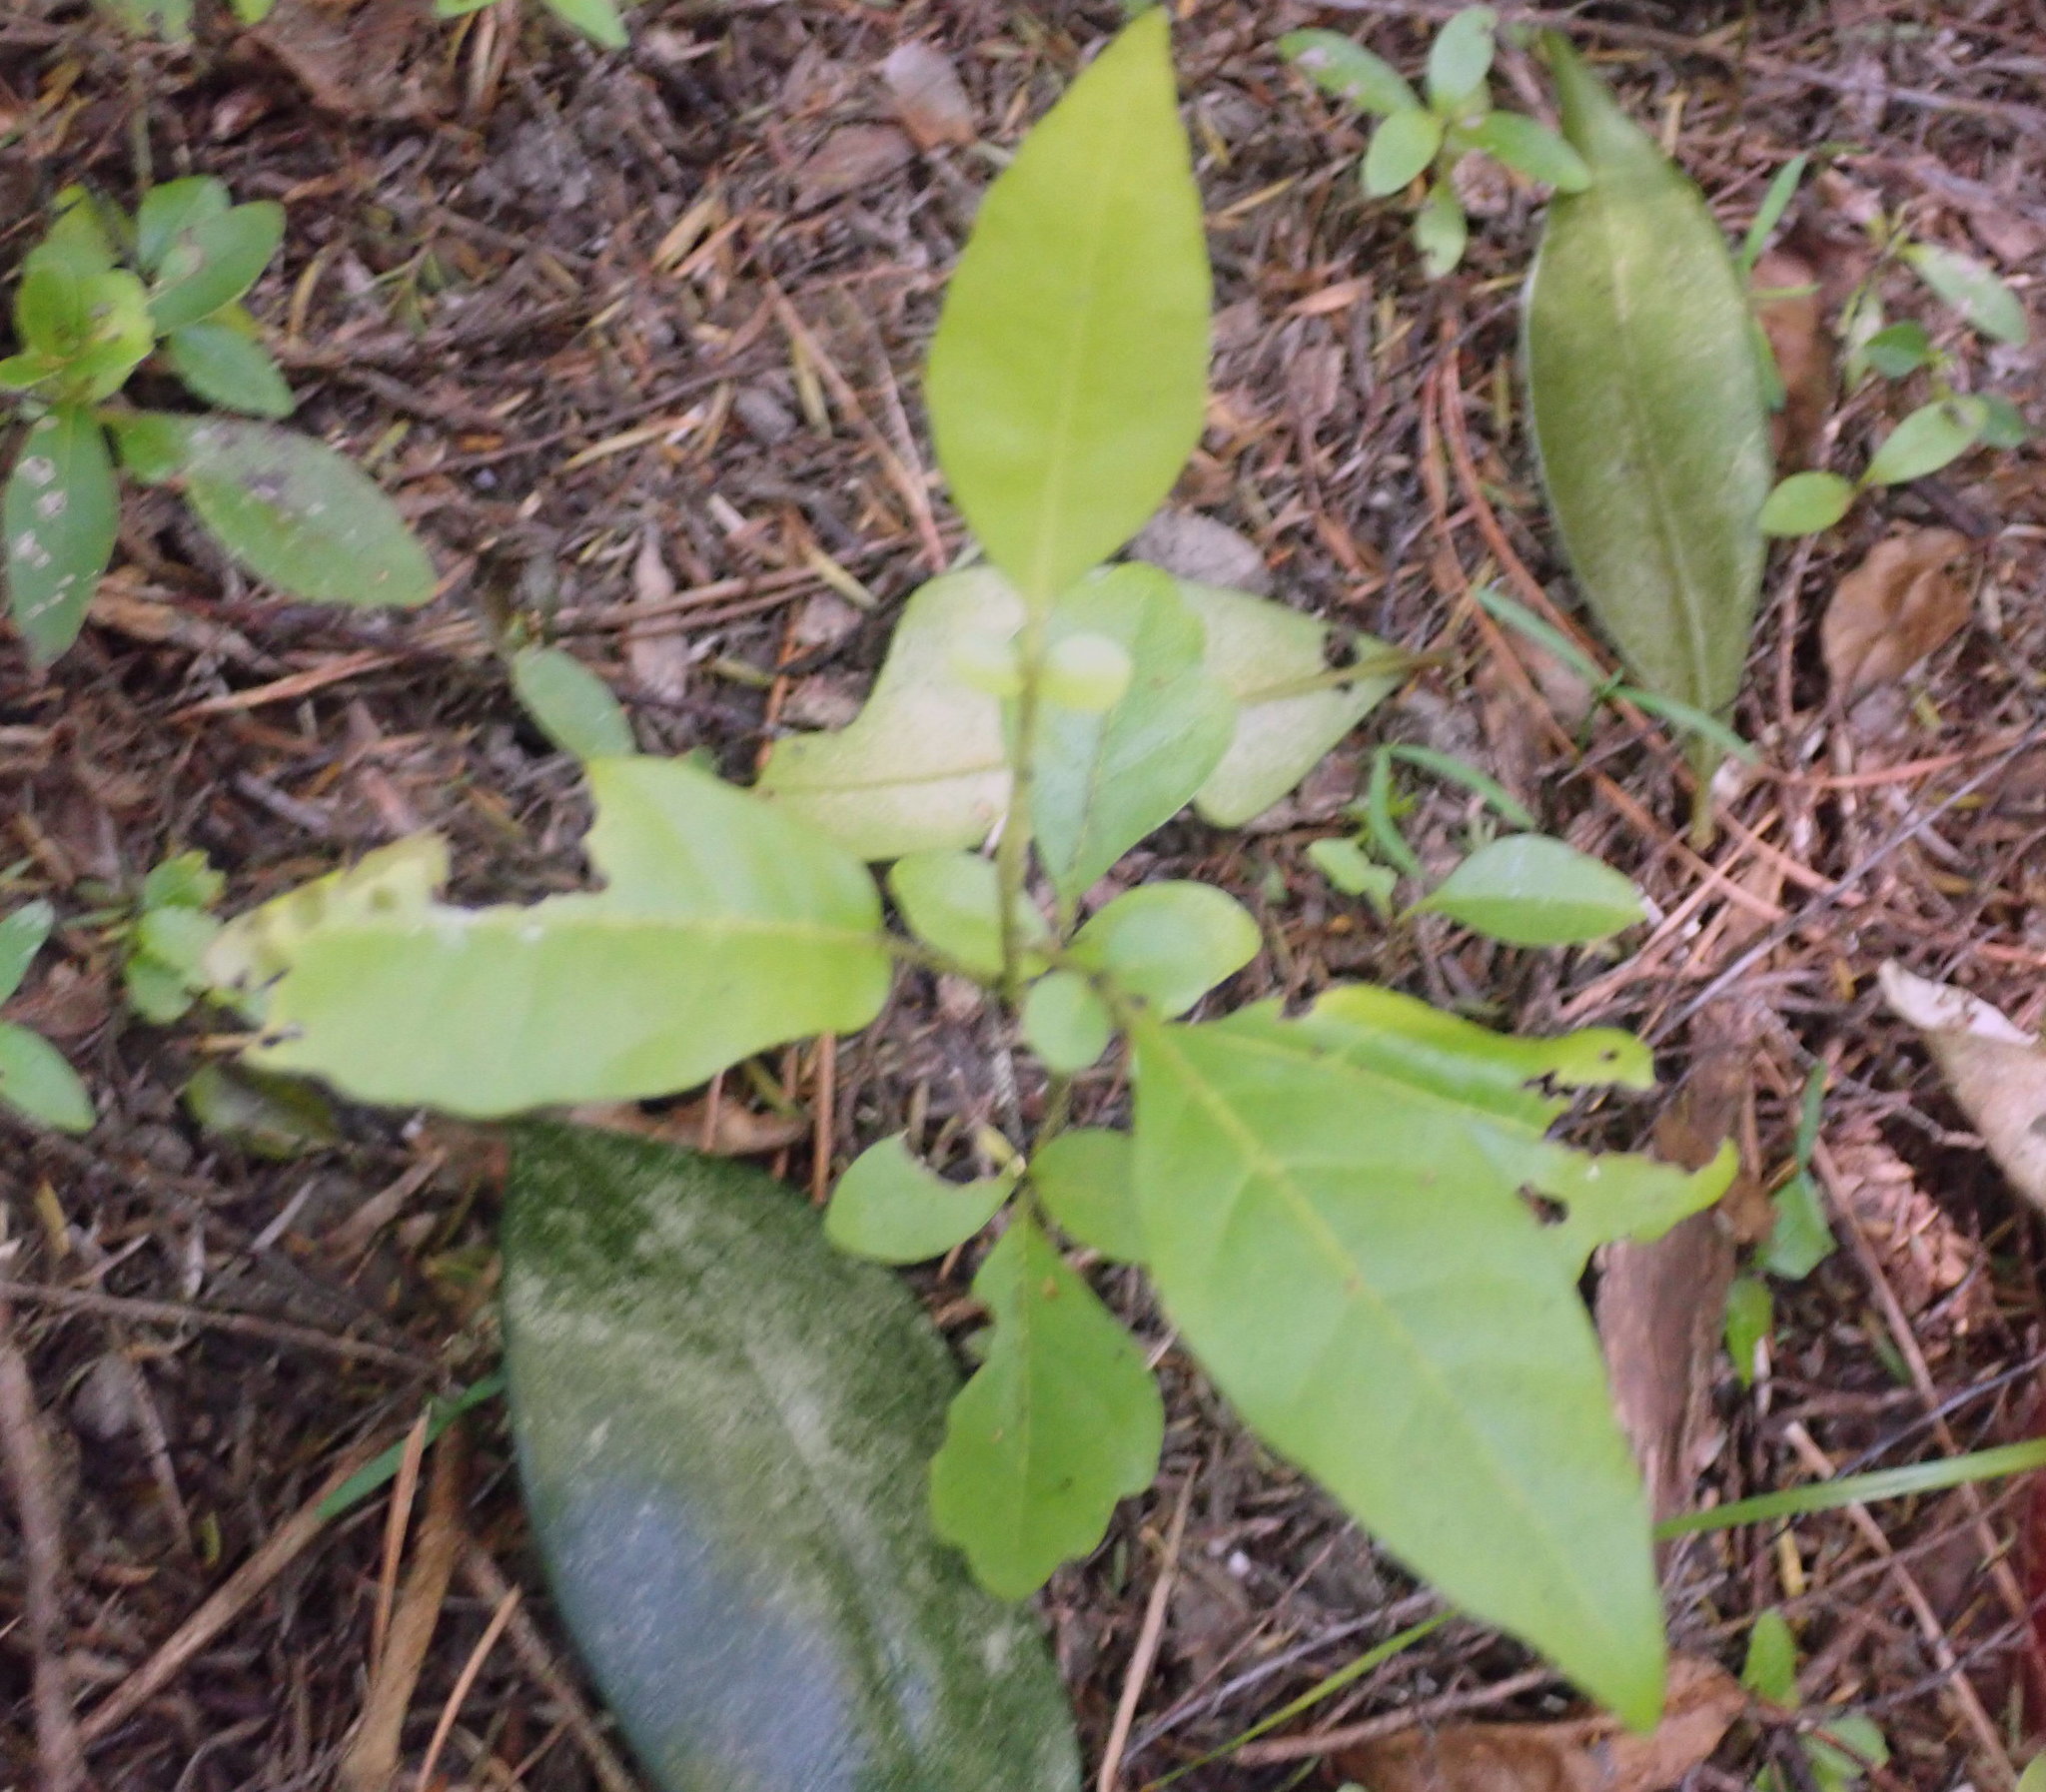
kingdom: Plantae
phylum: Tracheophyta
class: Magnoliopsida
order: Sapindales
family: Meliaceae
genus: Didymocheton
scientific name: Didymocheton spectabilis
